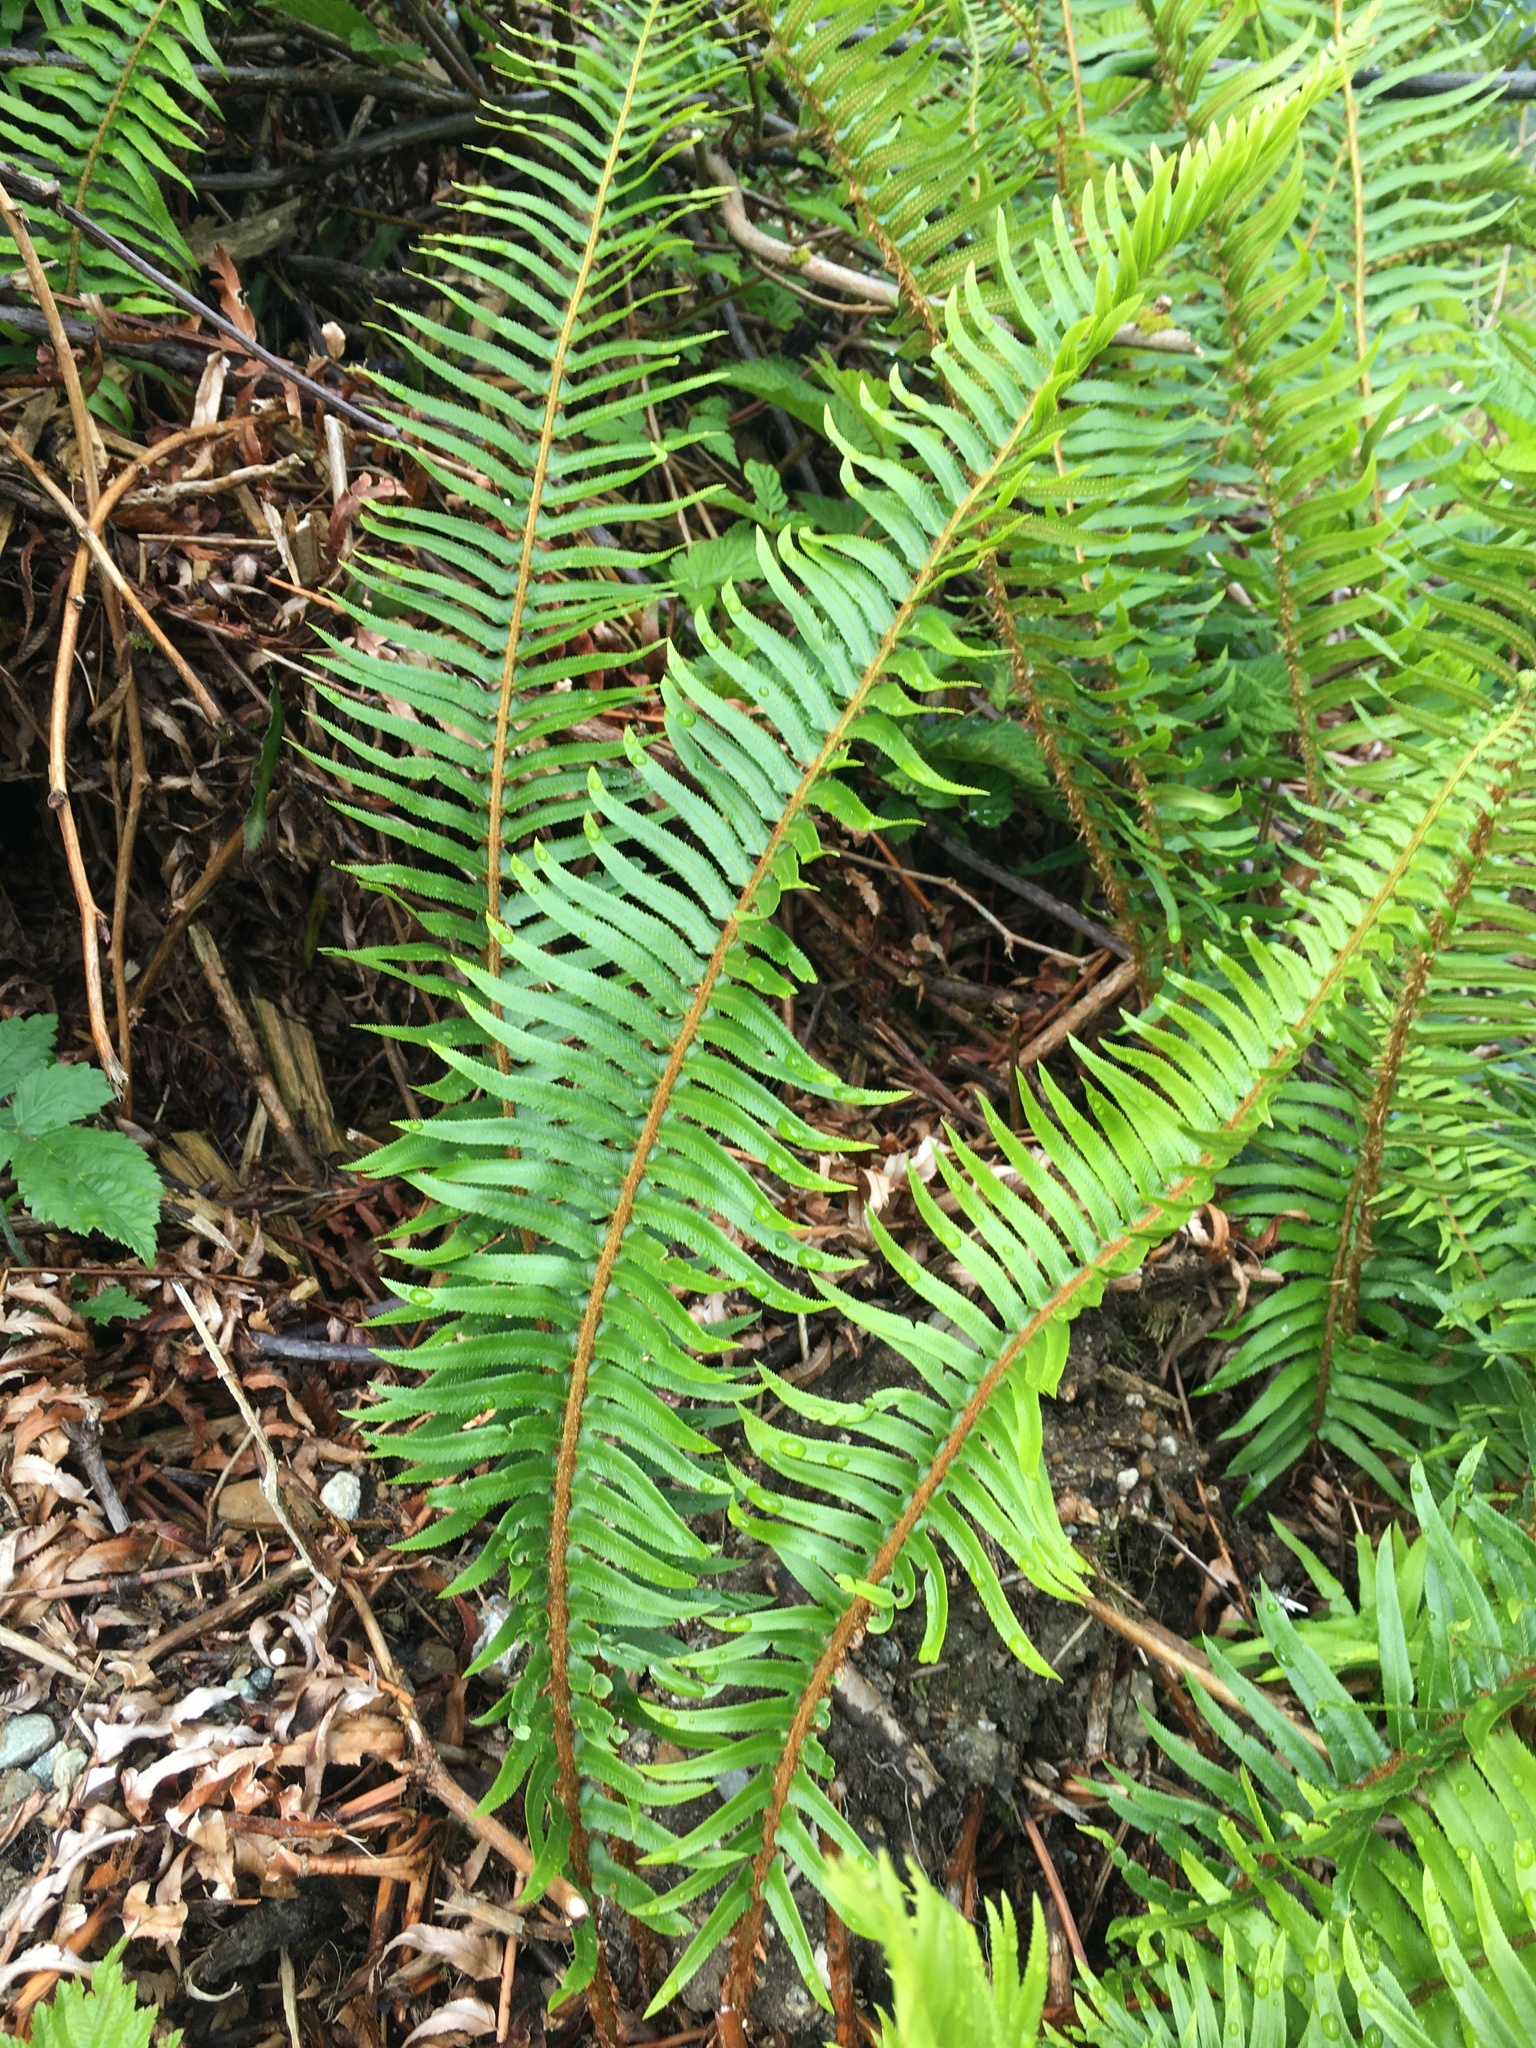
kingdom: Plantae
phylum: Tracheophyta
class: Polypodiopsida
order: Polypodiales
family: Dryopteridaceae
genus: Polystichum
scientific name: Polystichum munitum
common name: Western sword-fern
